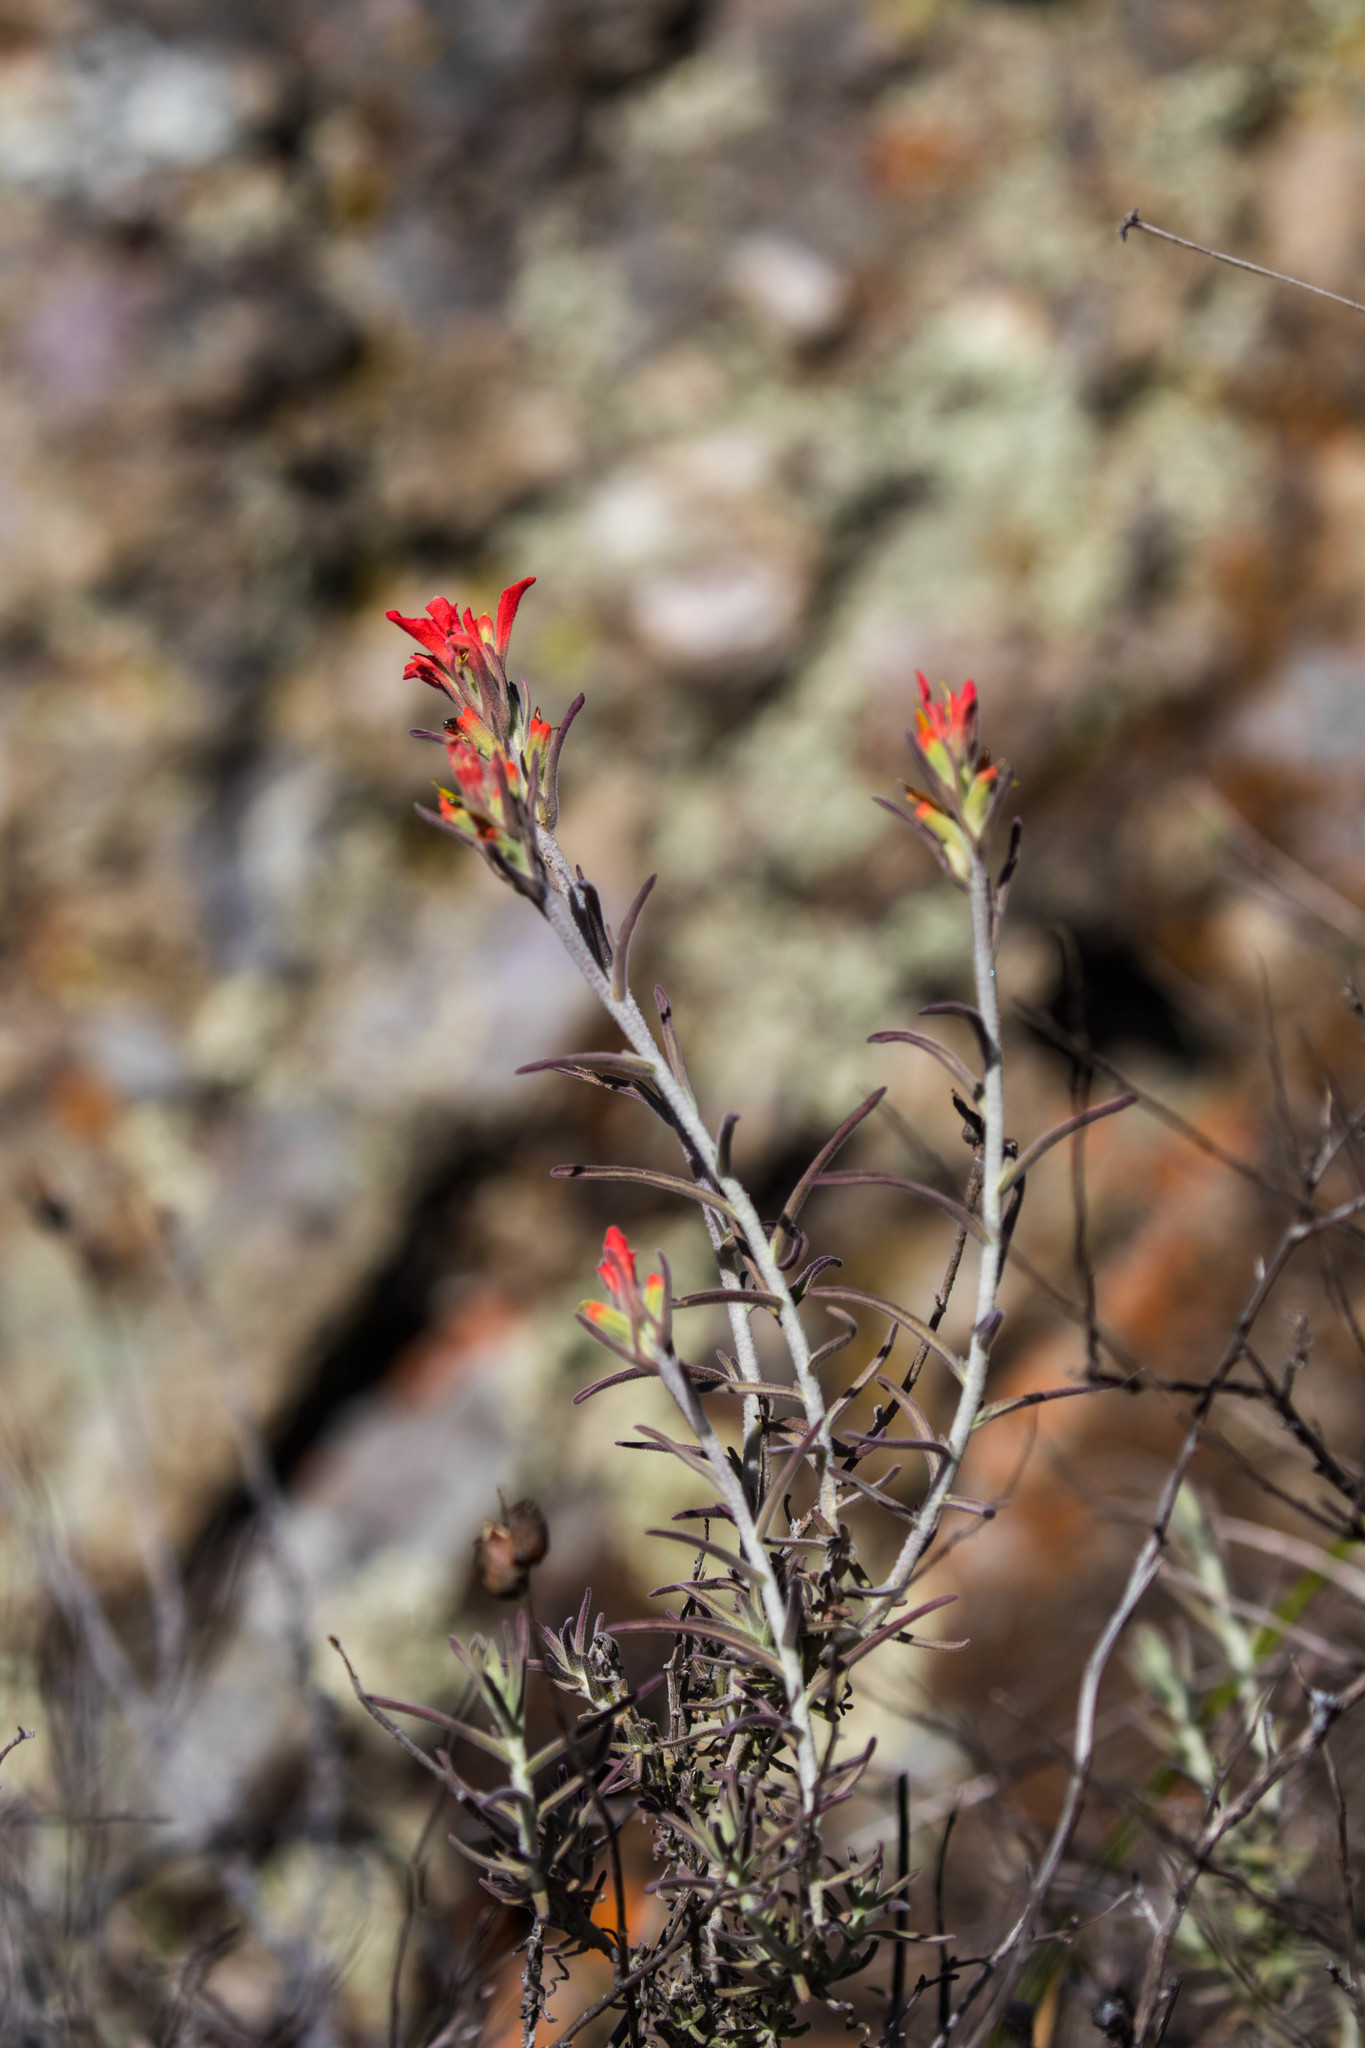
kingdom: Plantae
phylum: Tracheophyta
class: Magnoliopsida
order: Lamiales
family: Orobanchaceae
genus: Castilleja
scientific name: Castilleja foliolosa
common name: Woolly indian paintbrush
